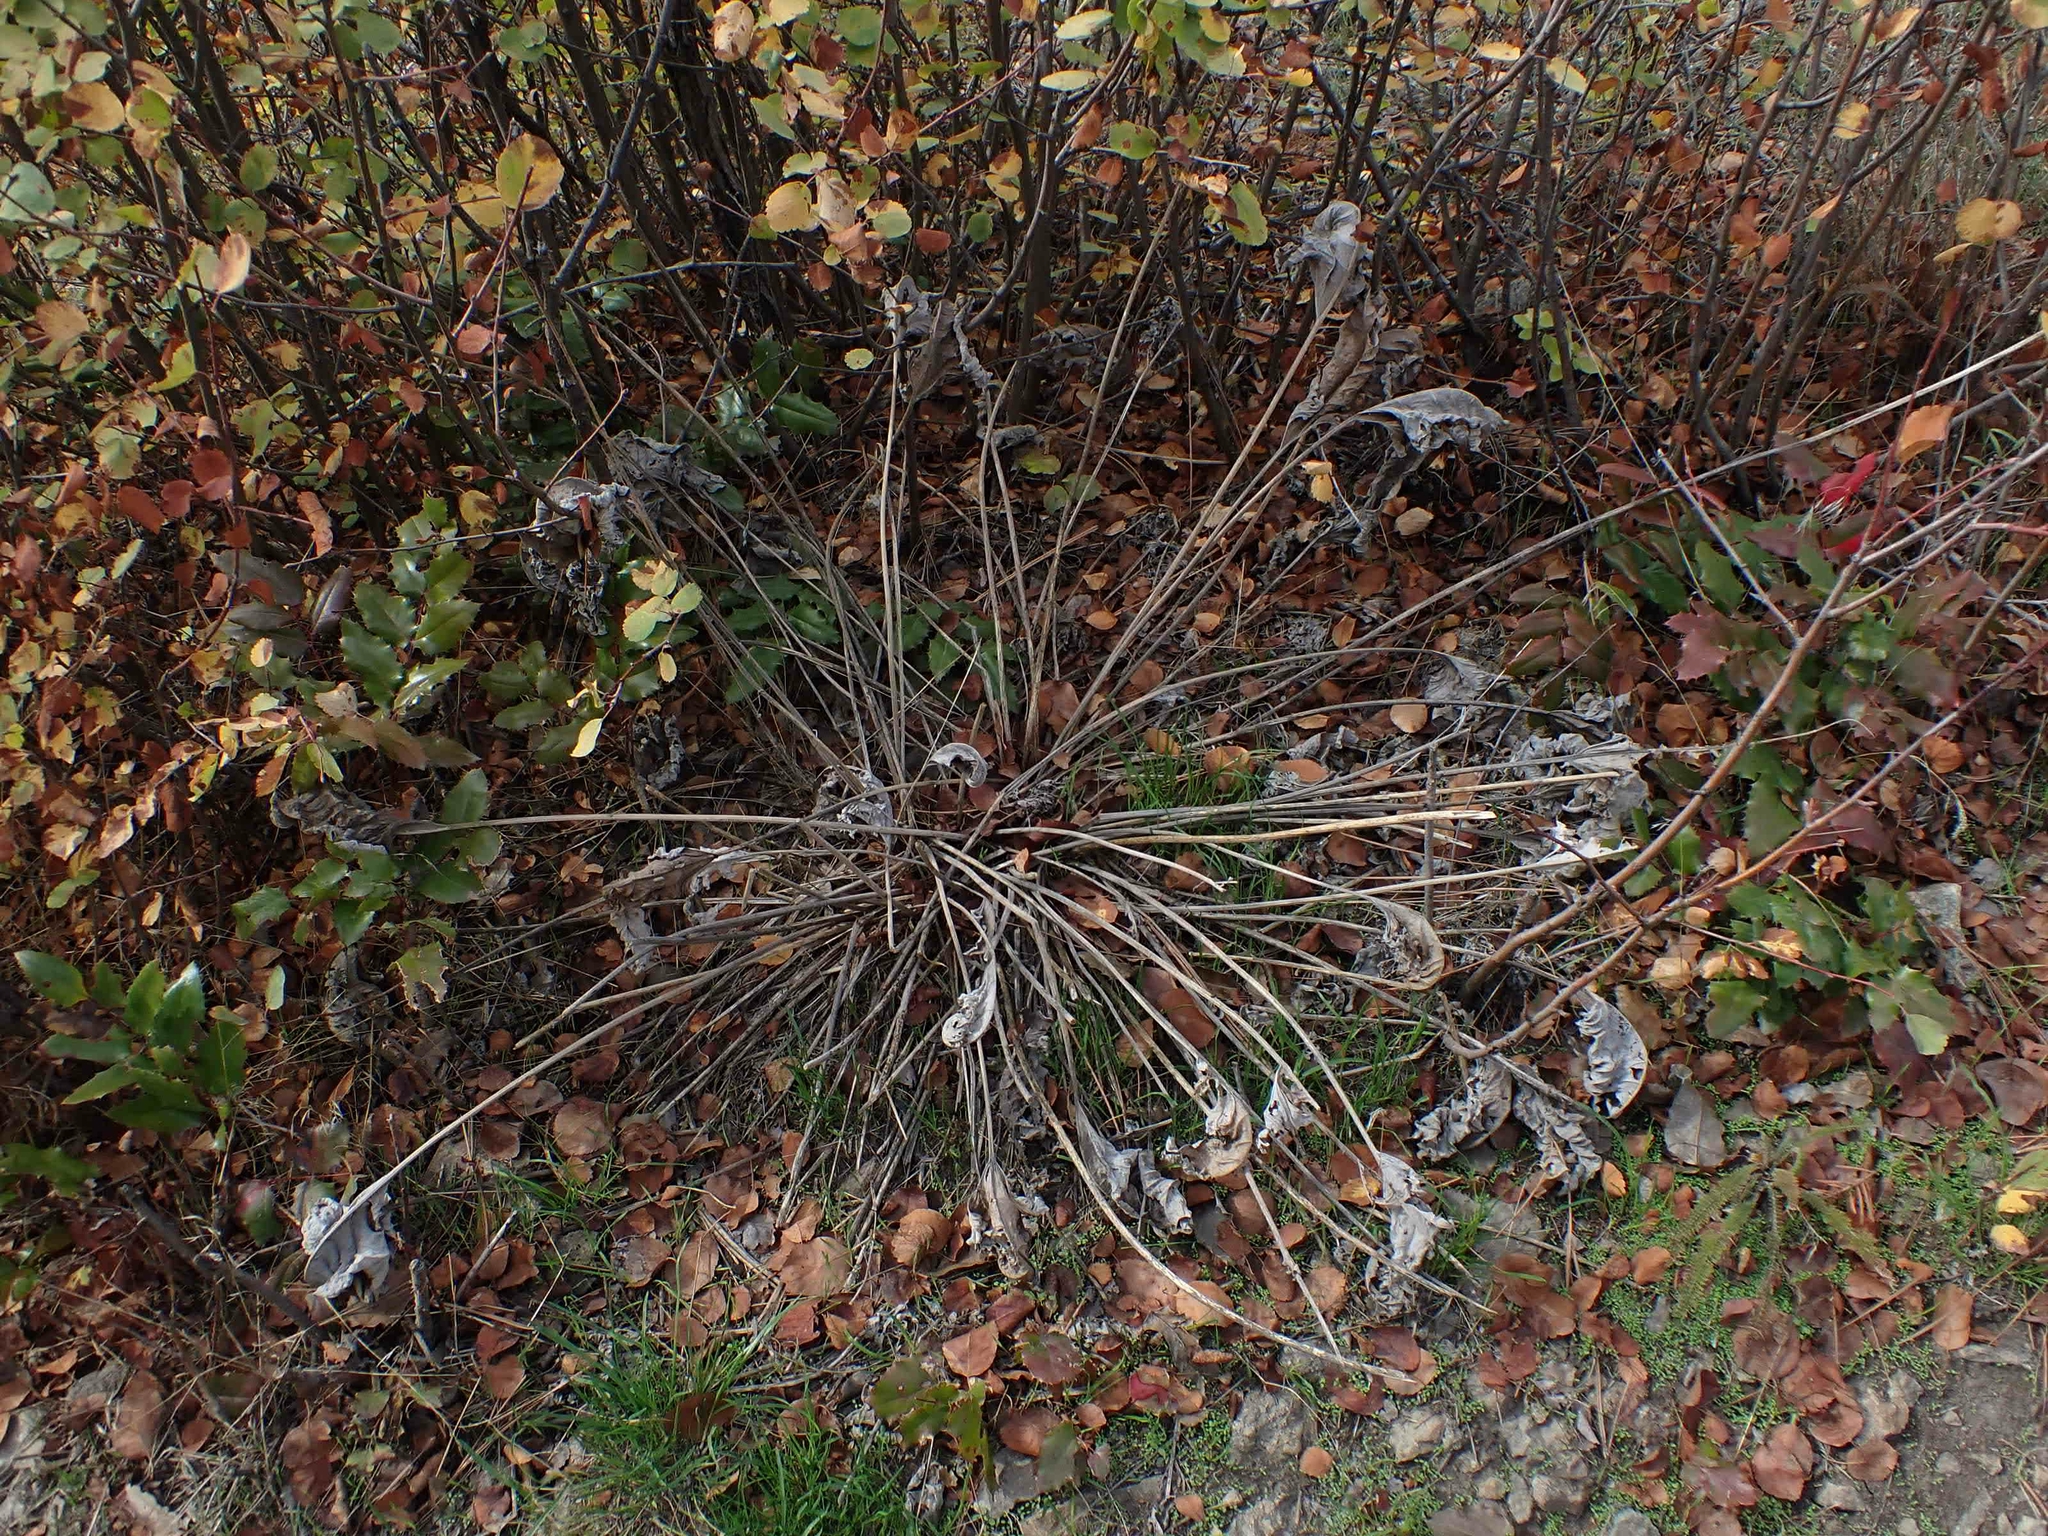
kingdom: Plantae
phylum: Tracheophyta
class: Magnoliopsida
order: Asterales
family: Asteraceae
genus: Wyethia
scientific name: Wyethia sagittata
